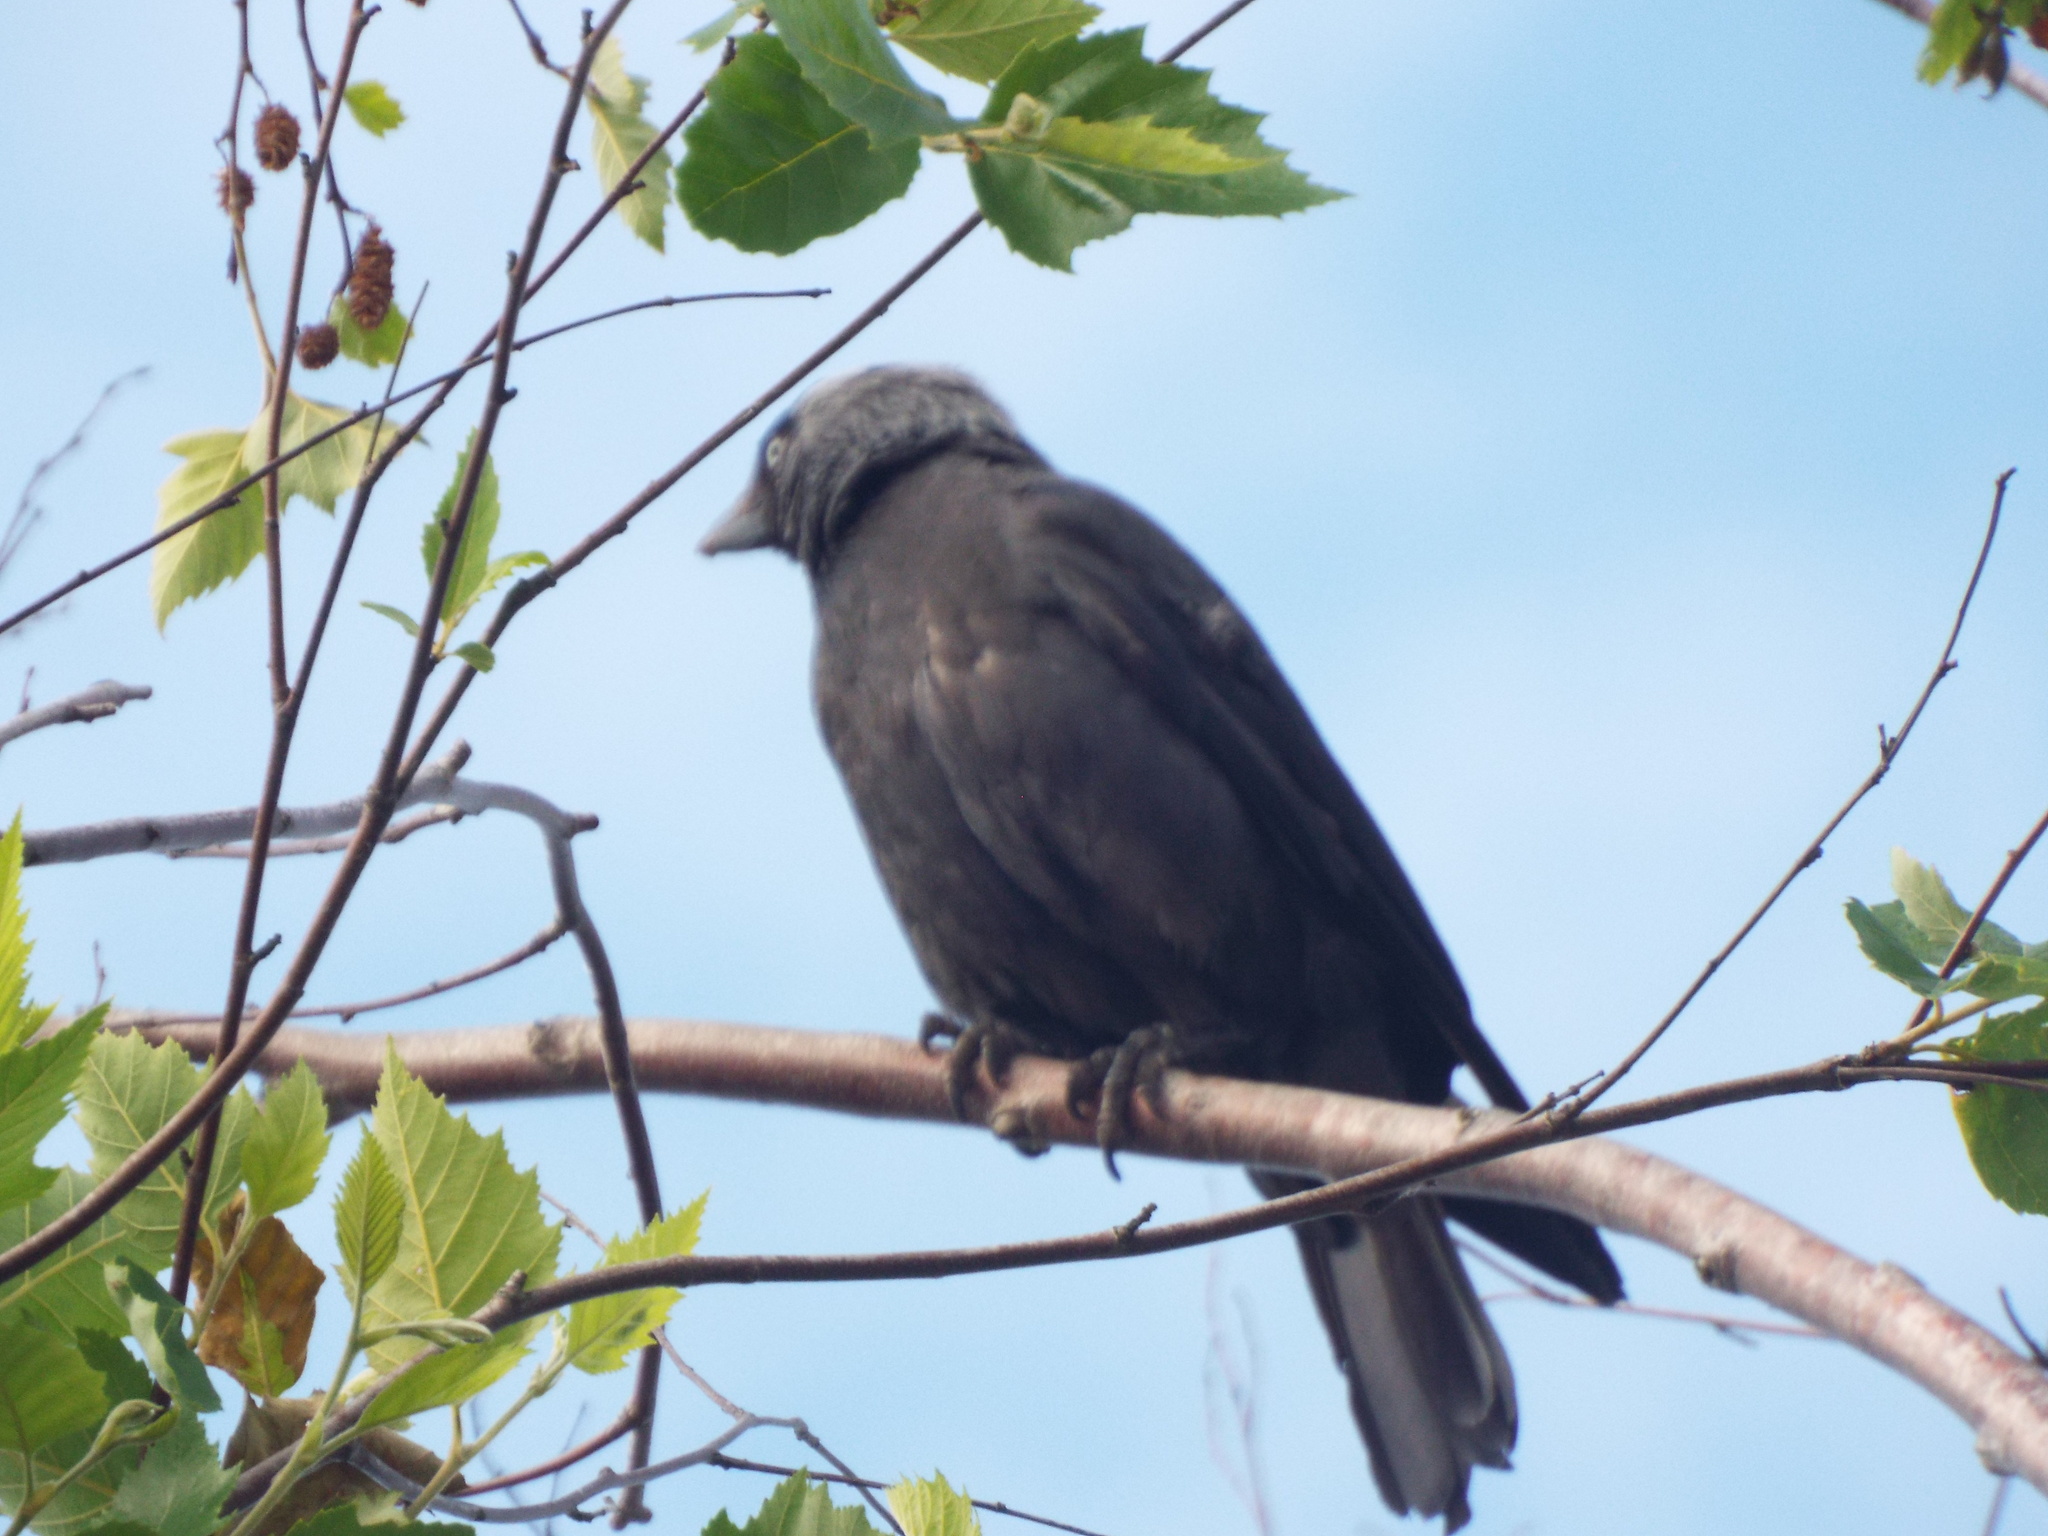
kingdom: Animalia
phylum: Chordata
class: Aves
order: Passeriformes
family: Corvidae
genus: Coloeus
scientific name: Coloeus monedula
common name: Western jackdaw
